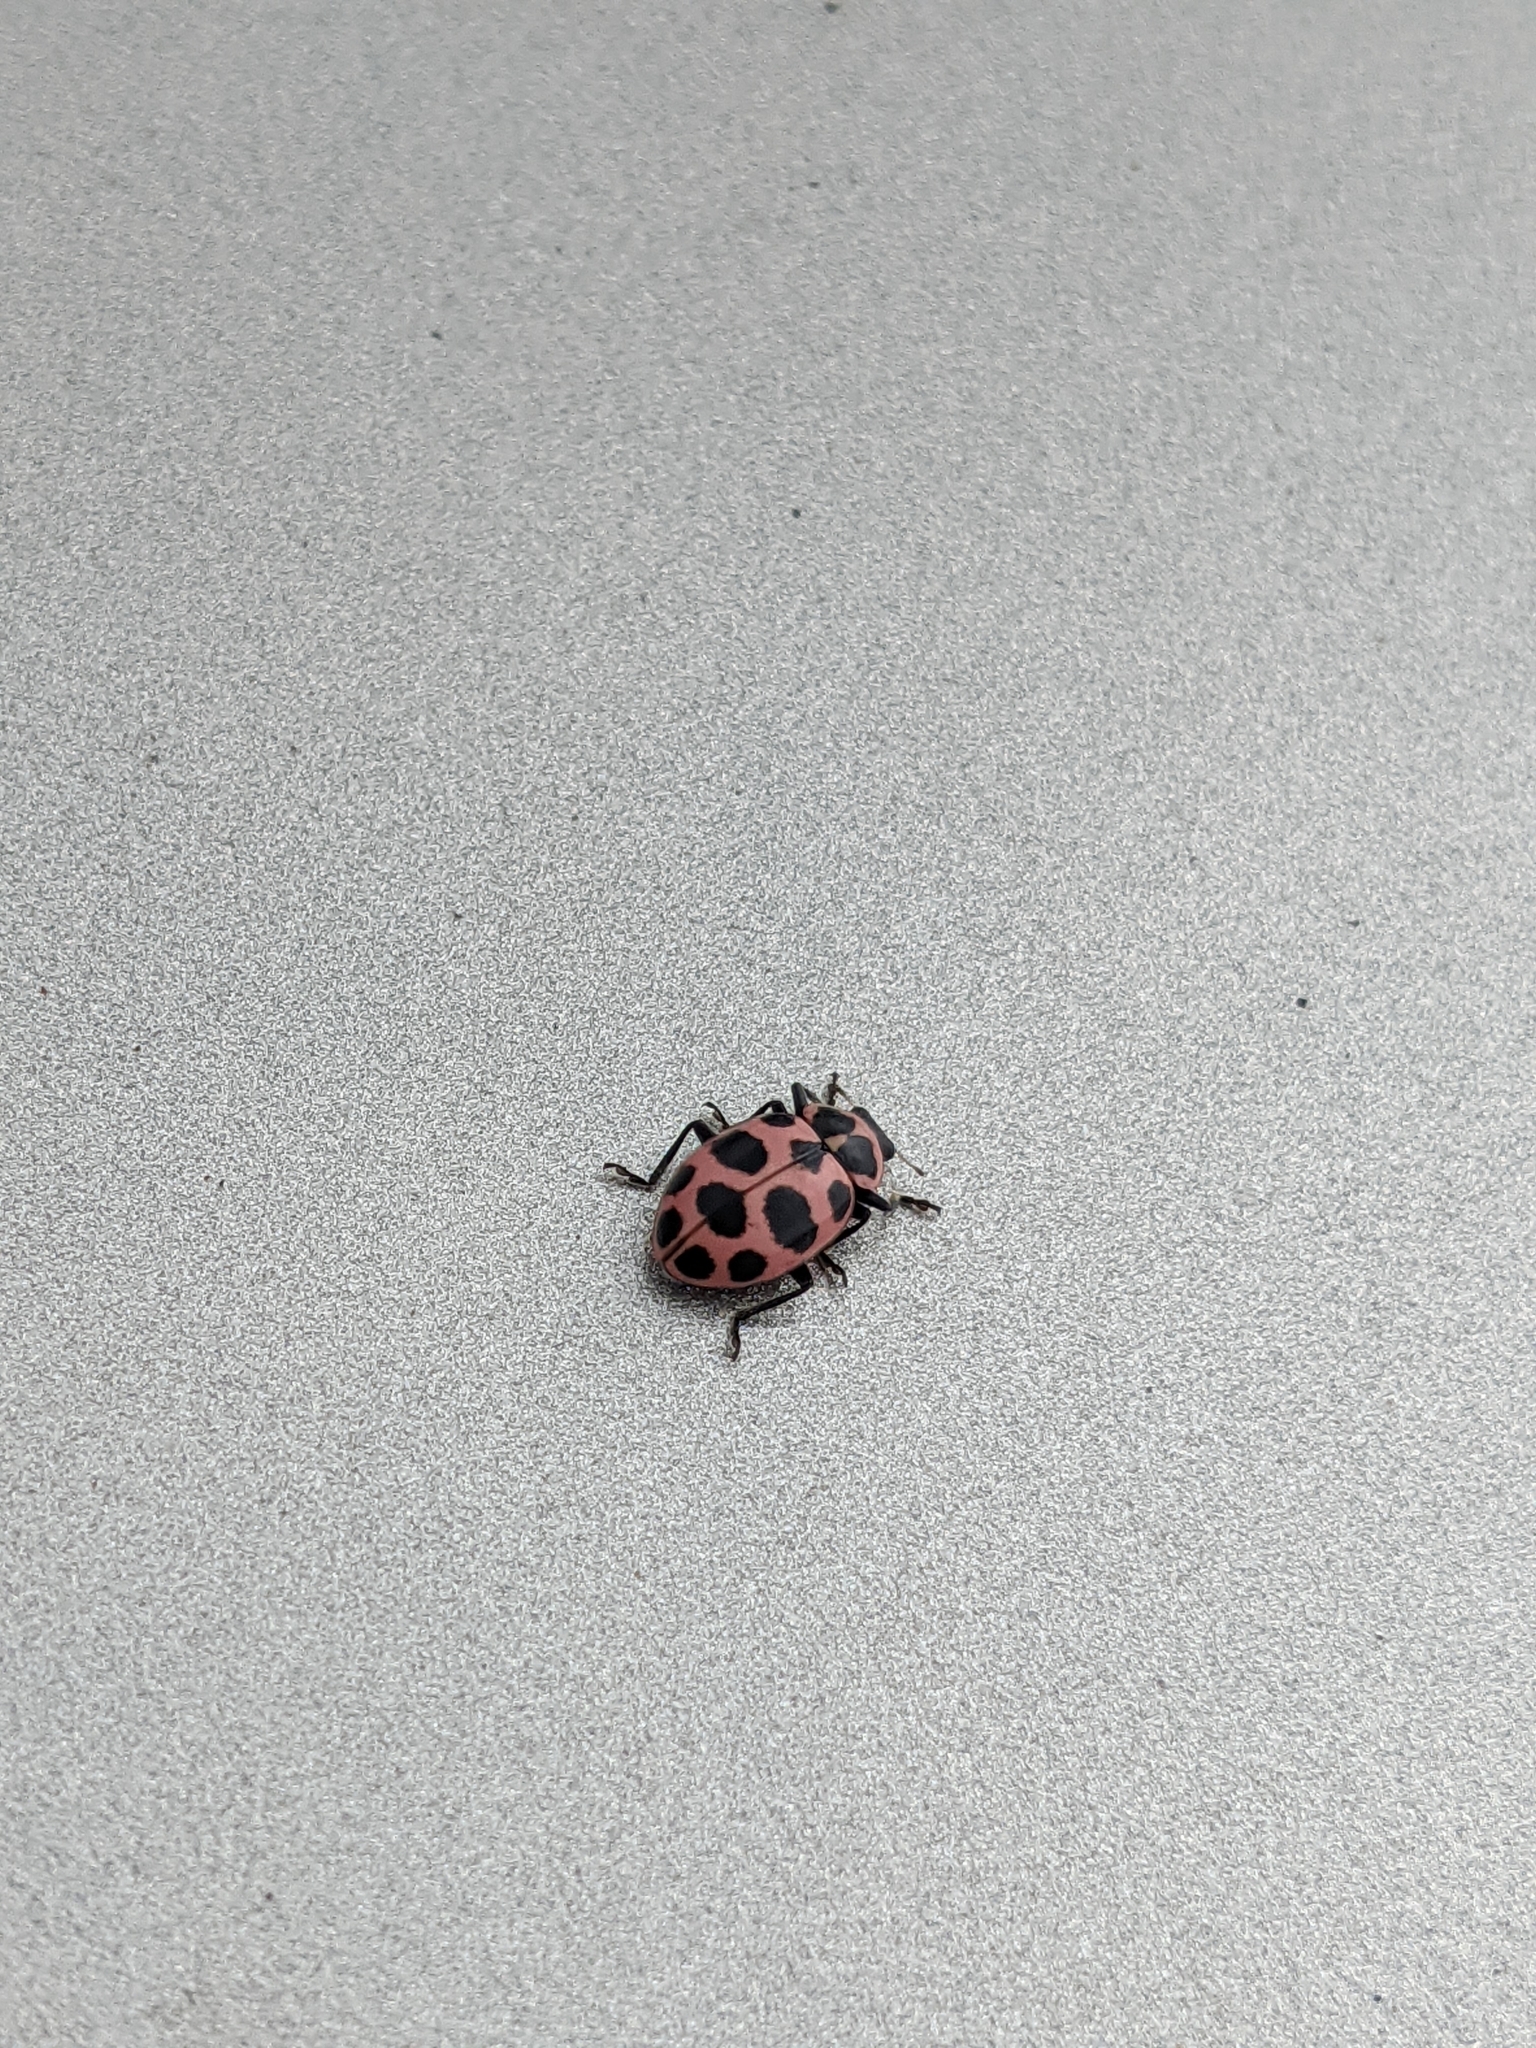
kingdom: Animalia
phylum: Arthropoda
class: Insecta
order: Coleoptera
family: Coccinellidae
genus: Coleomegilla
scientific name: Coleomegilla maculata
